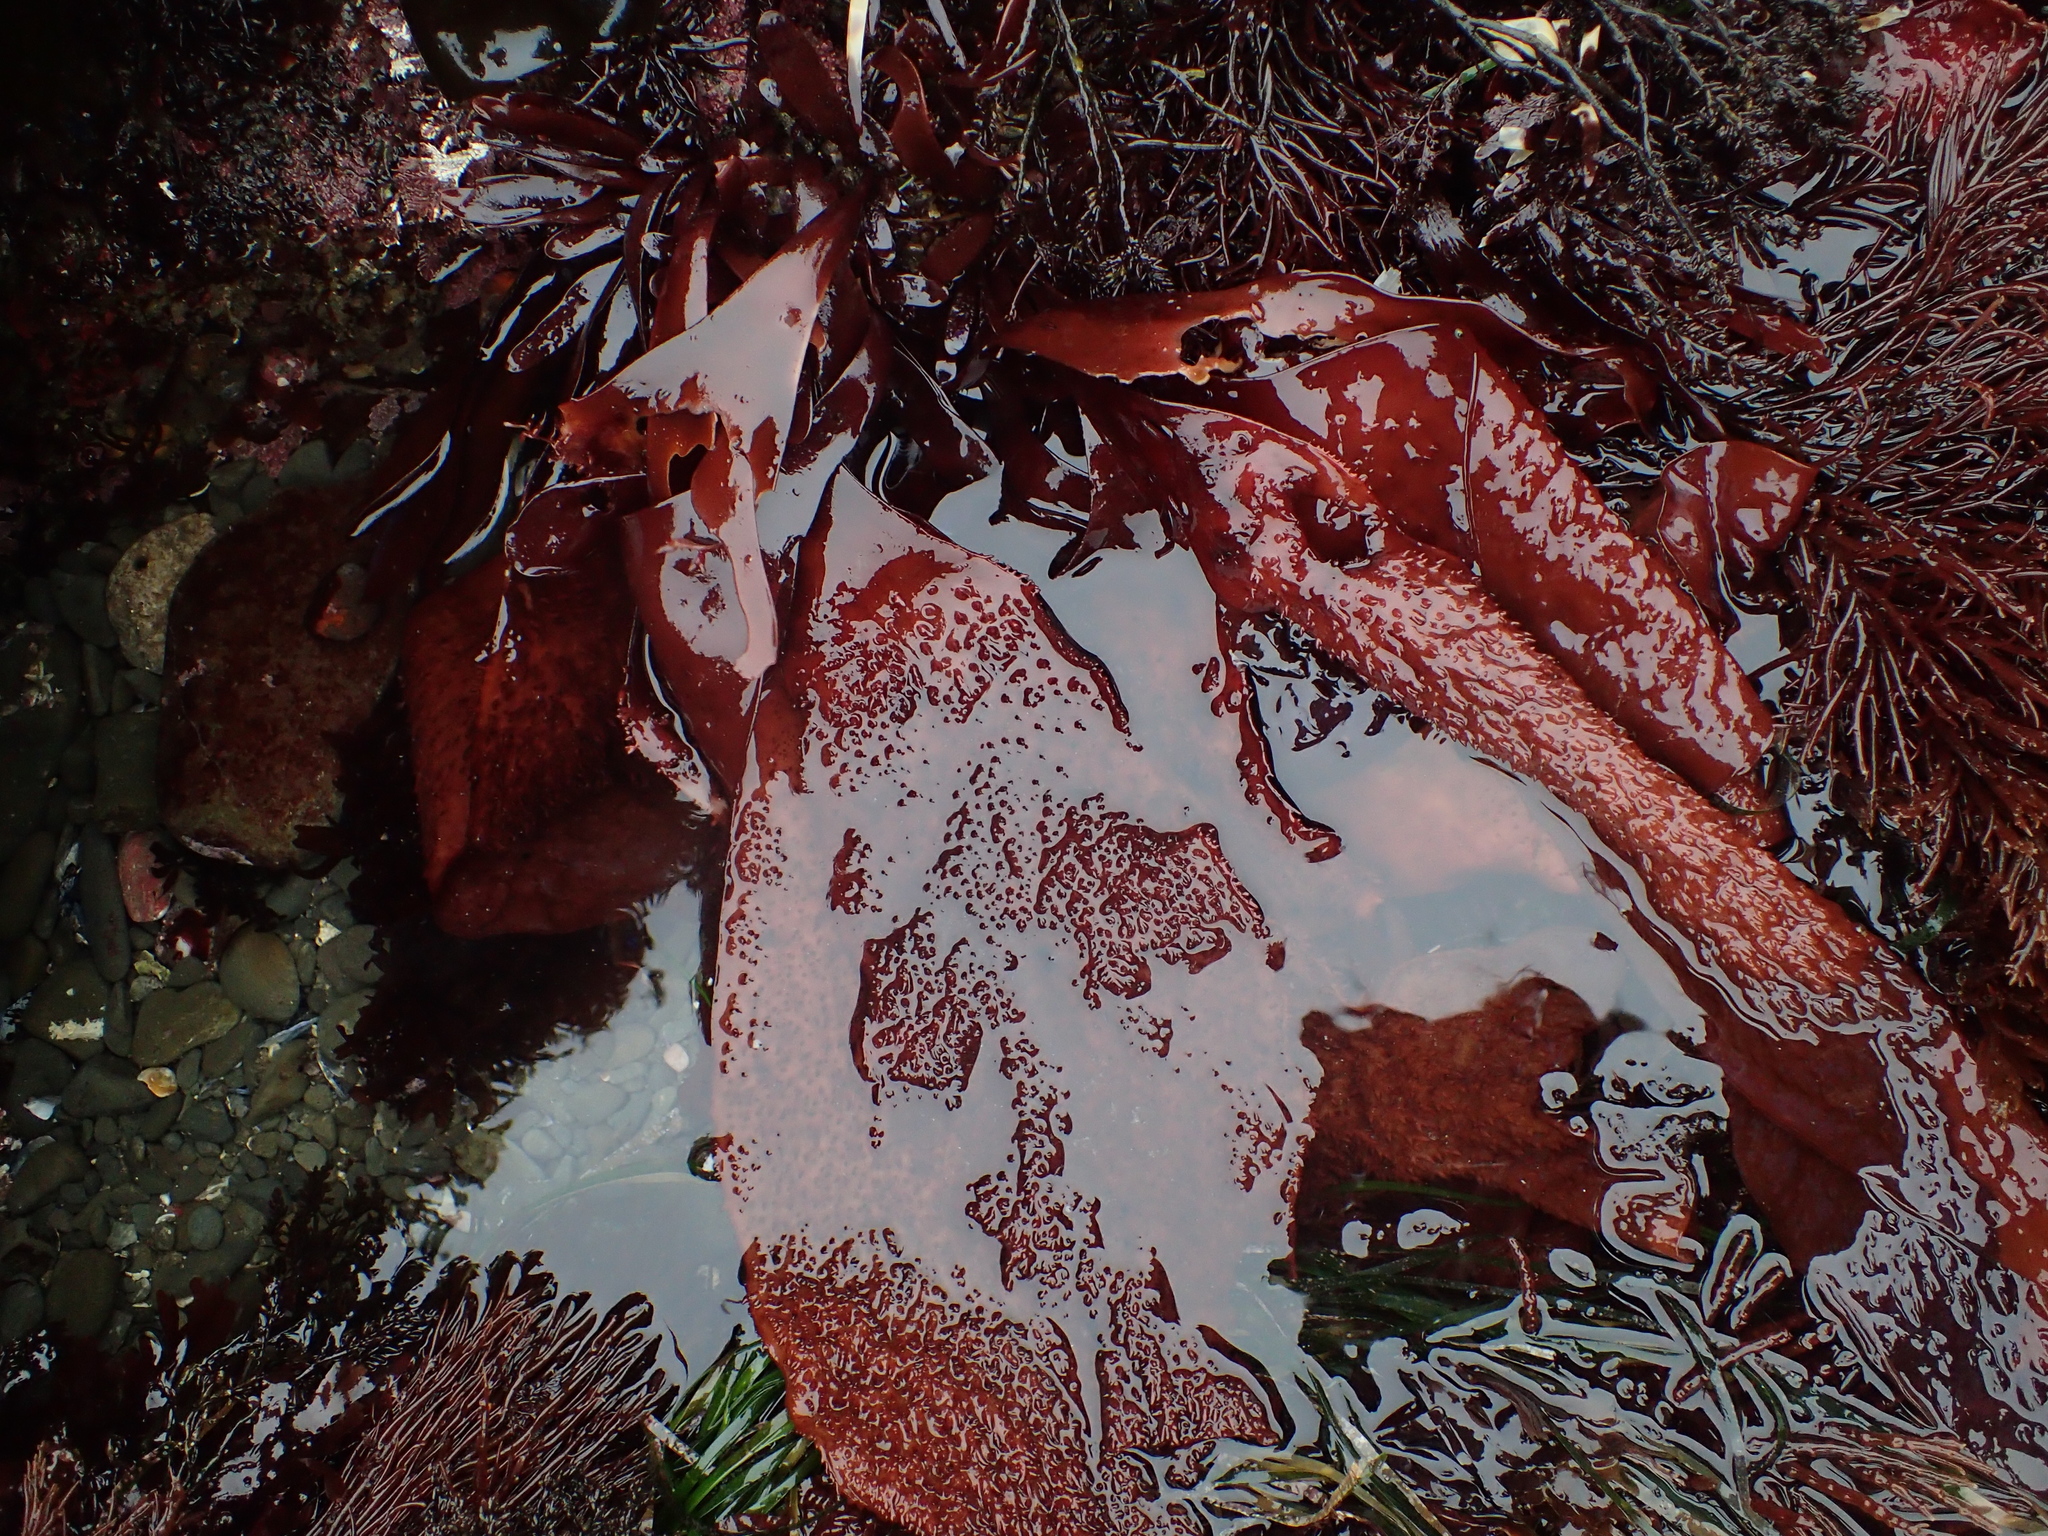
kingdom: Plantae
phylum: Rhodophyta
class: Florideophyceae
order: Gigartinales
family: Gigartinaceae
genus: Chondracanthus
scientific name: Chondracanthus exasperatus
